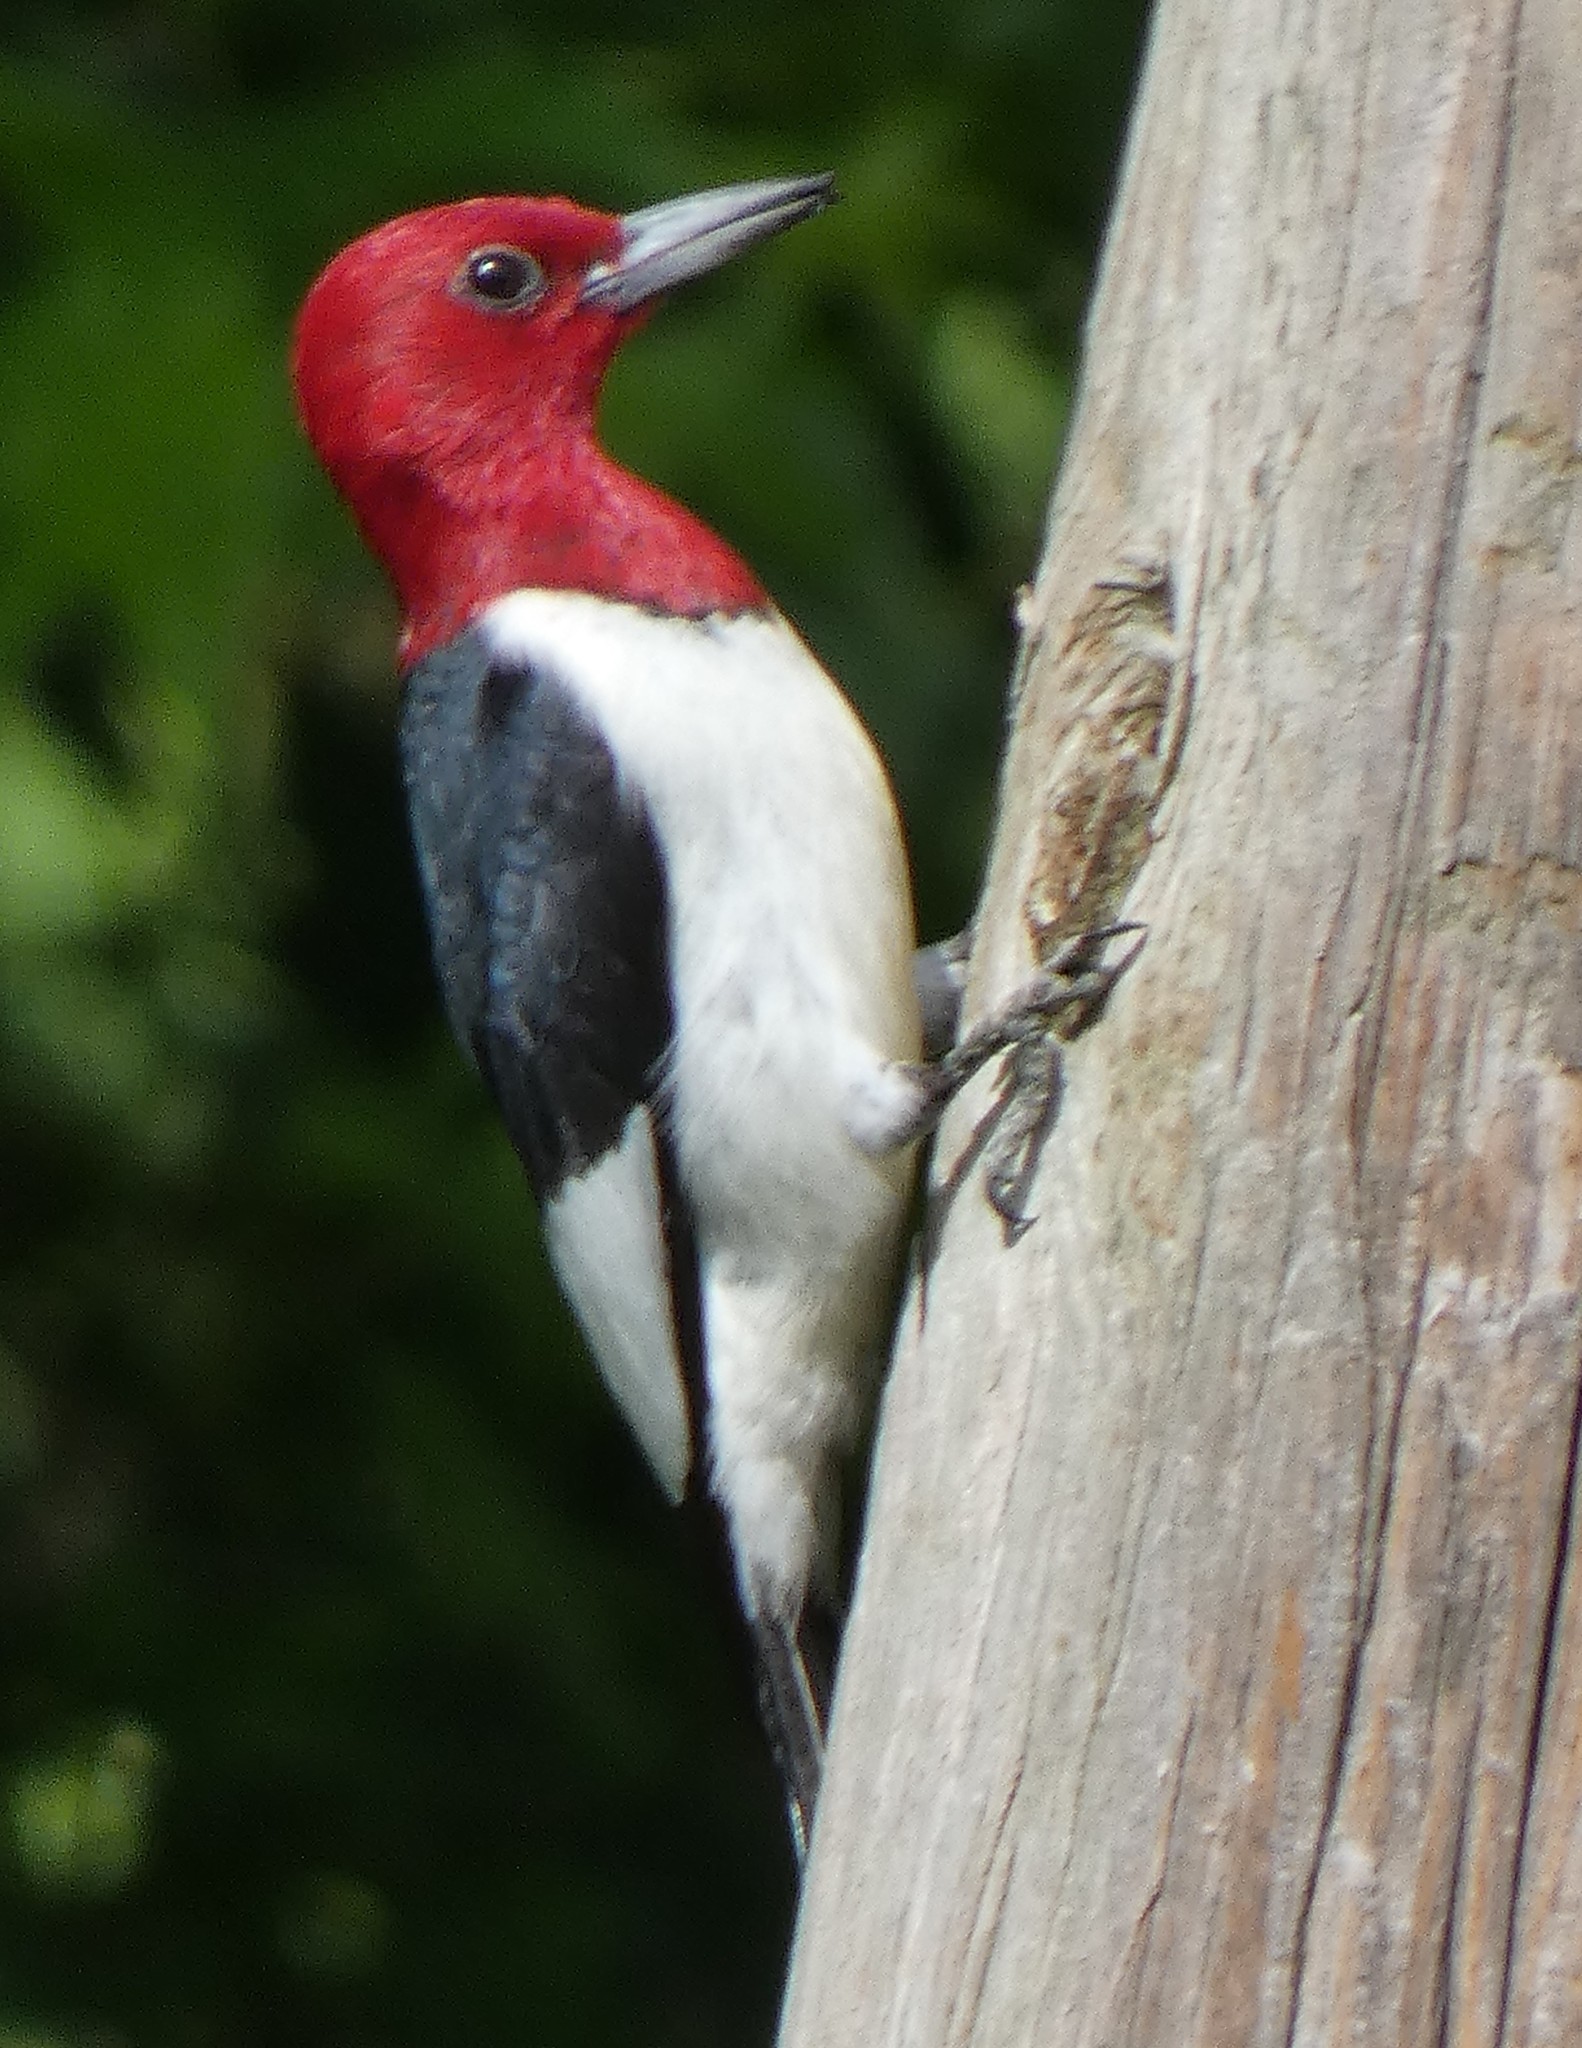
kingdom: Animalia
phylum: Chordata
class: Aves
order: Piciformes
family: Picidae
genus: Melanerpes
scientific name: Melanerpes erythrocephalus
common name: Red-headed woodpecker
